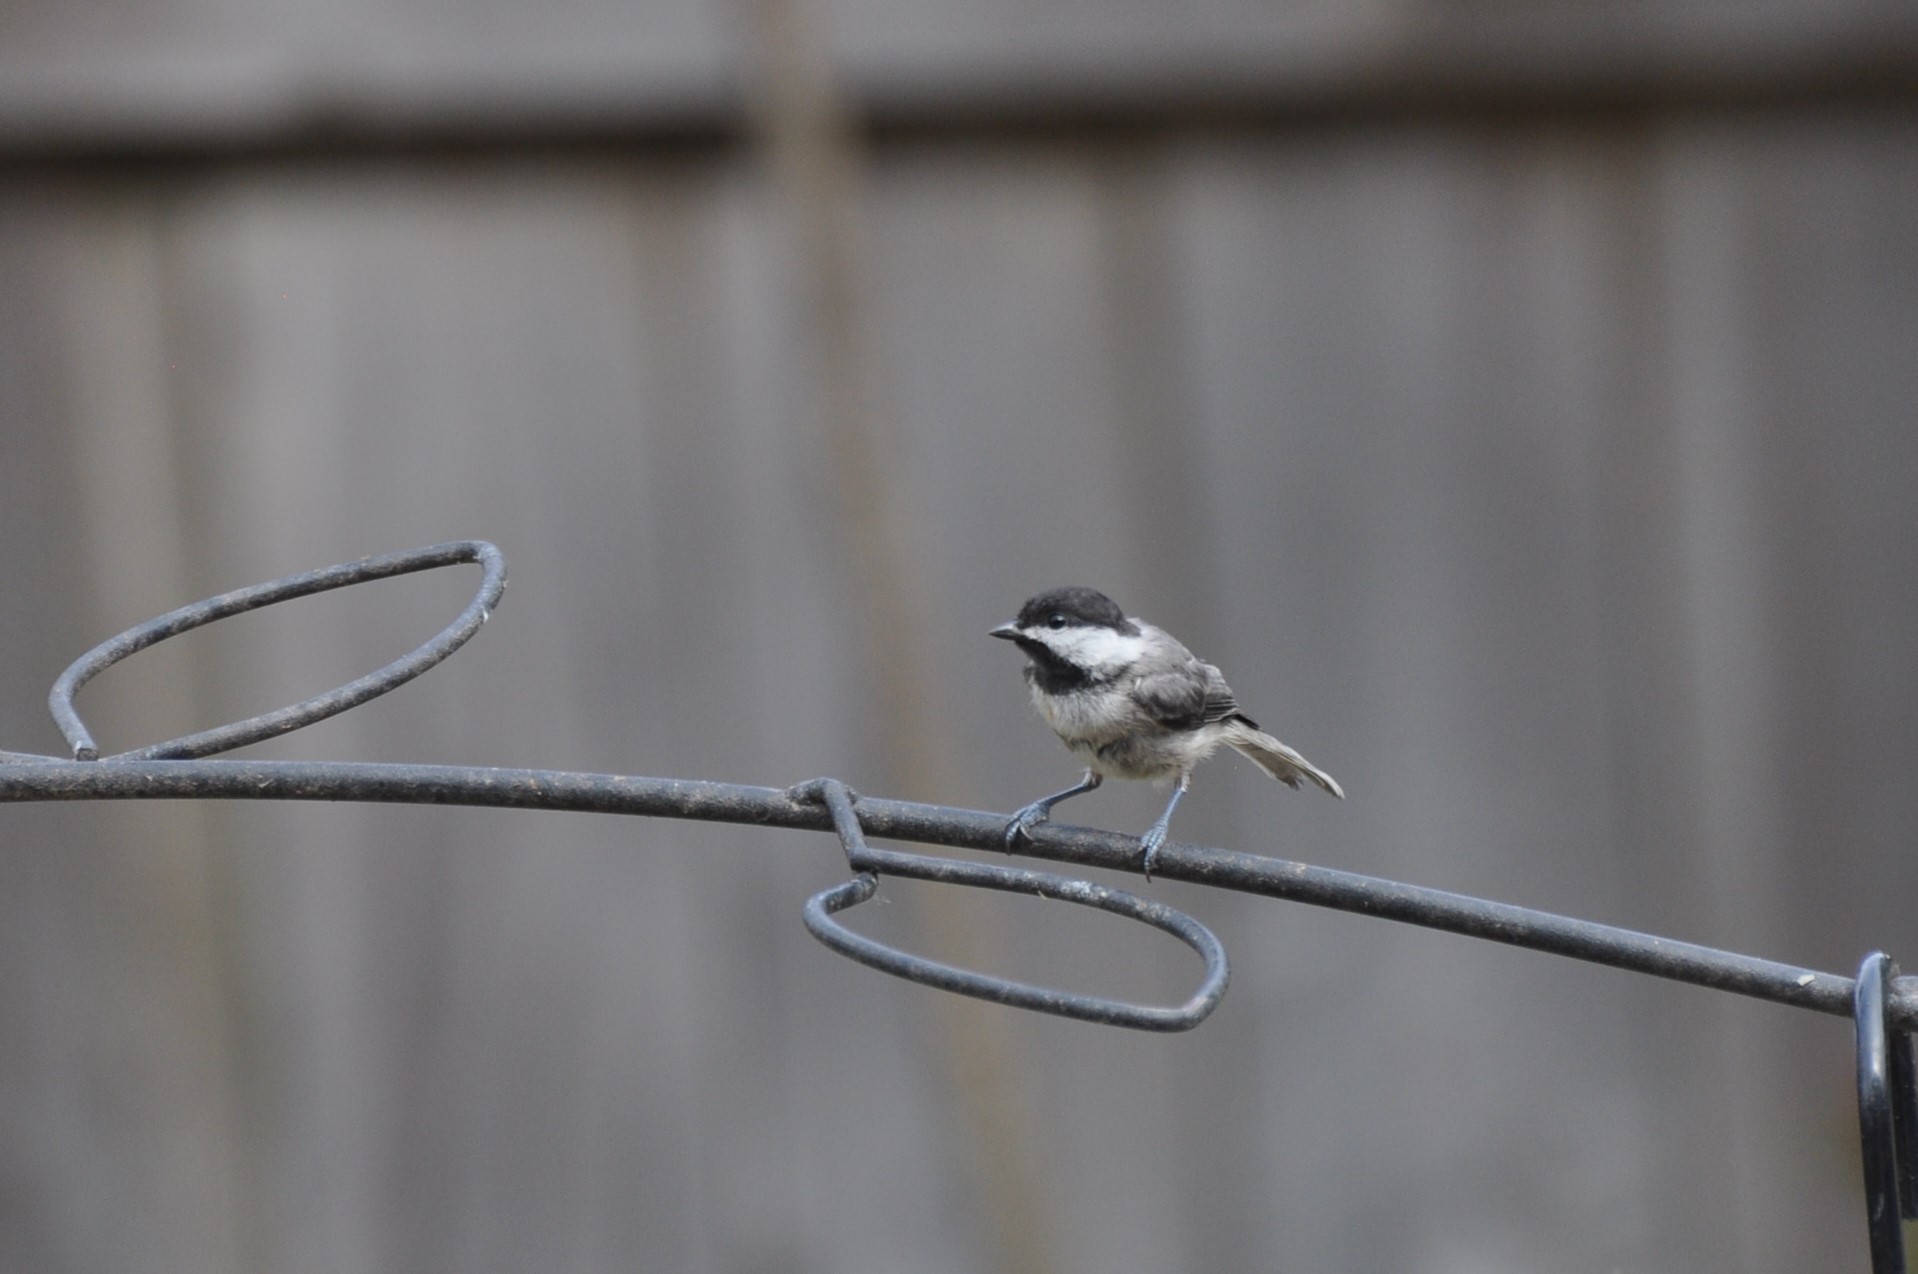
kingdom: Animalia
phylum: Chordata
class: Aves
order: Passeriformes
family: Paridae
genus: Poecile
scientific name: Poecile carolinensis
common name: Carolina chickadee
